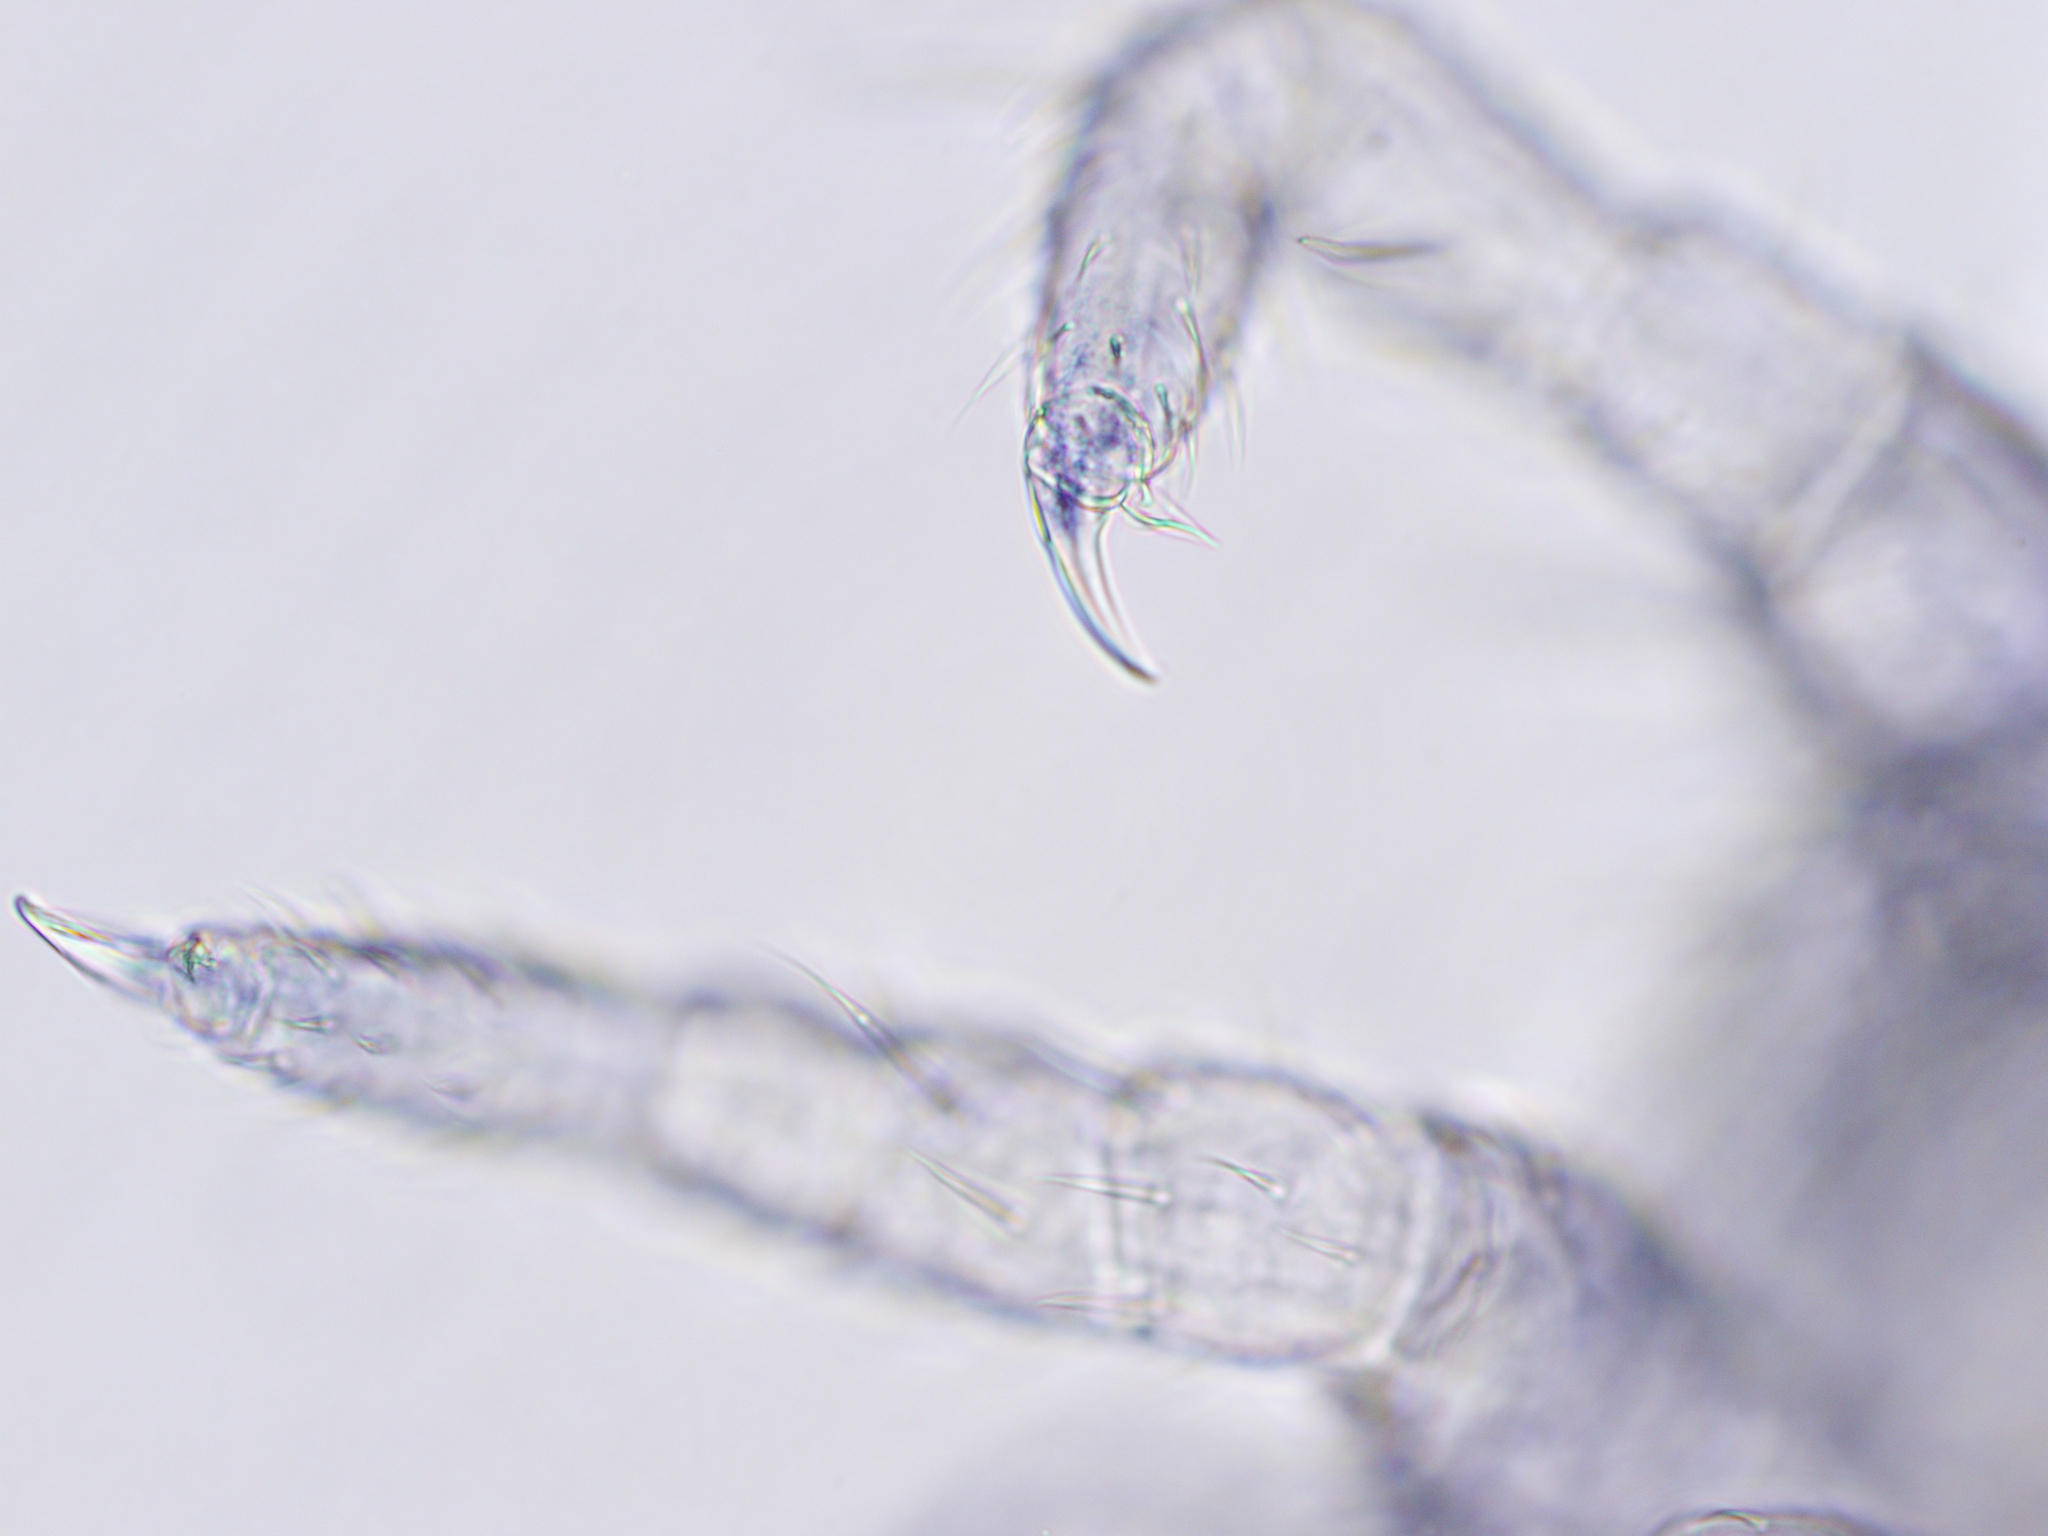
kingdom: Animalia
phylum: Arthropoda
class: Collembola
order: Entomobryomorpha
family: Isotomidae
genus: Isotomurus
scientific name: Isotomurus retardatus
